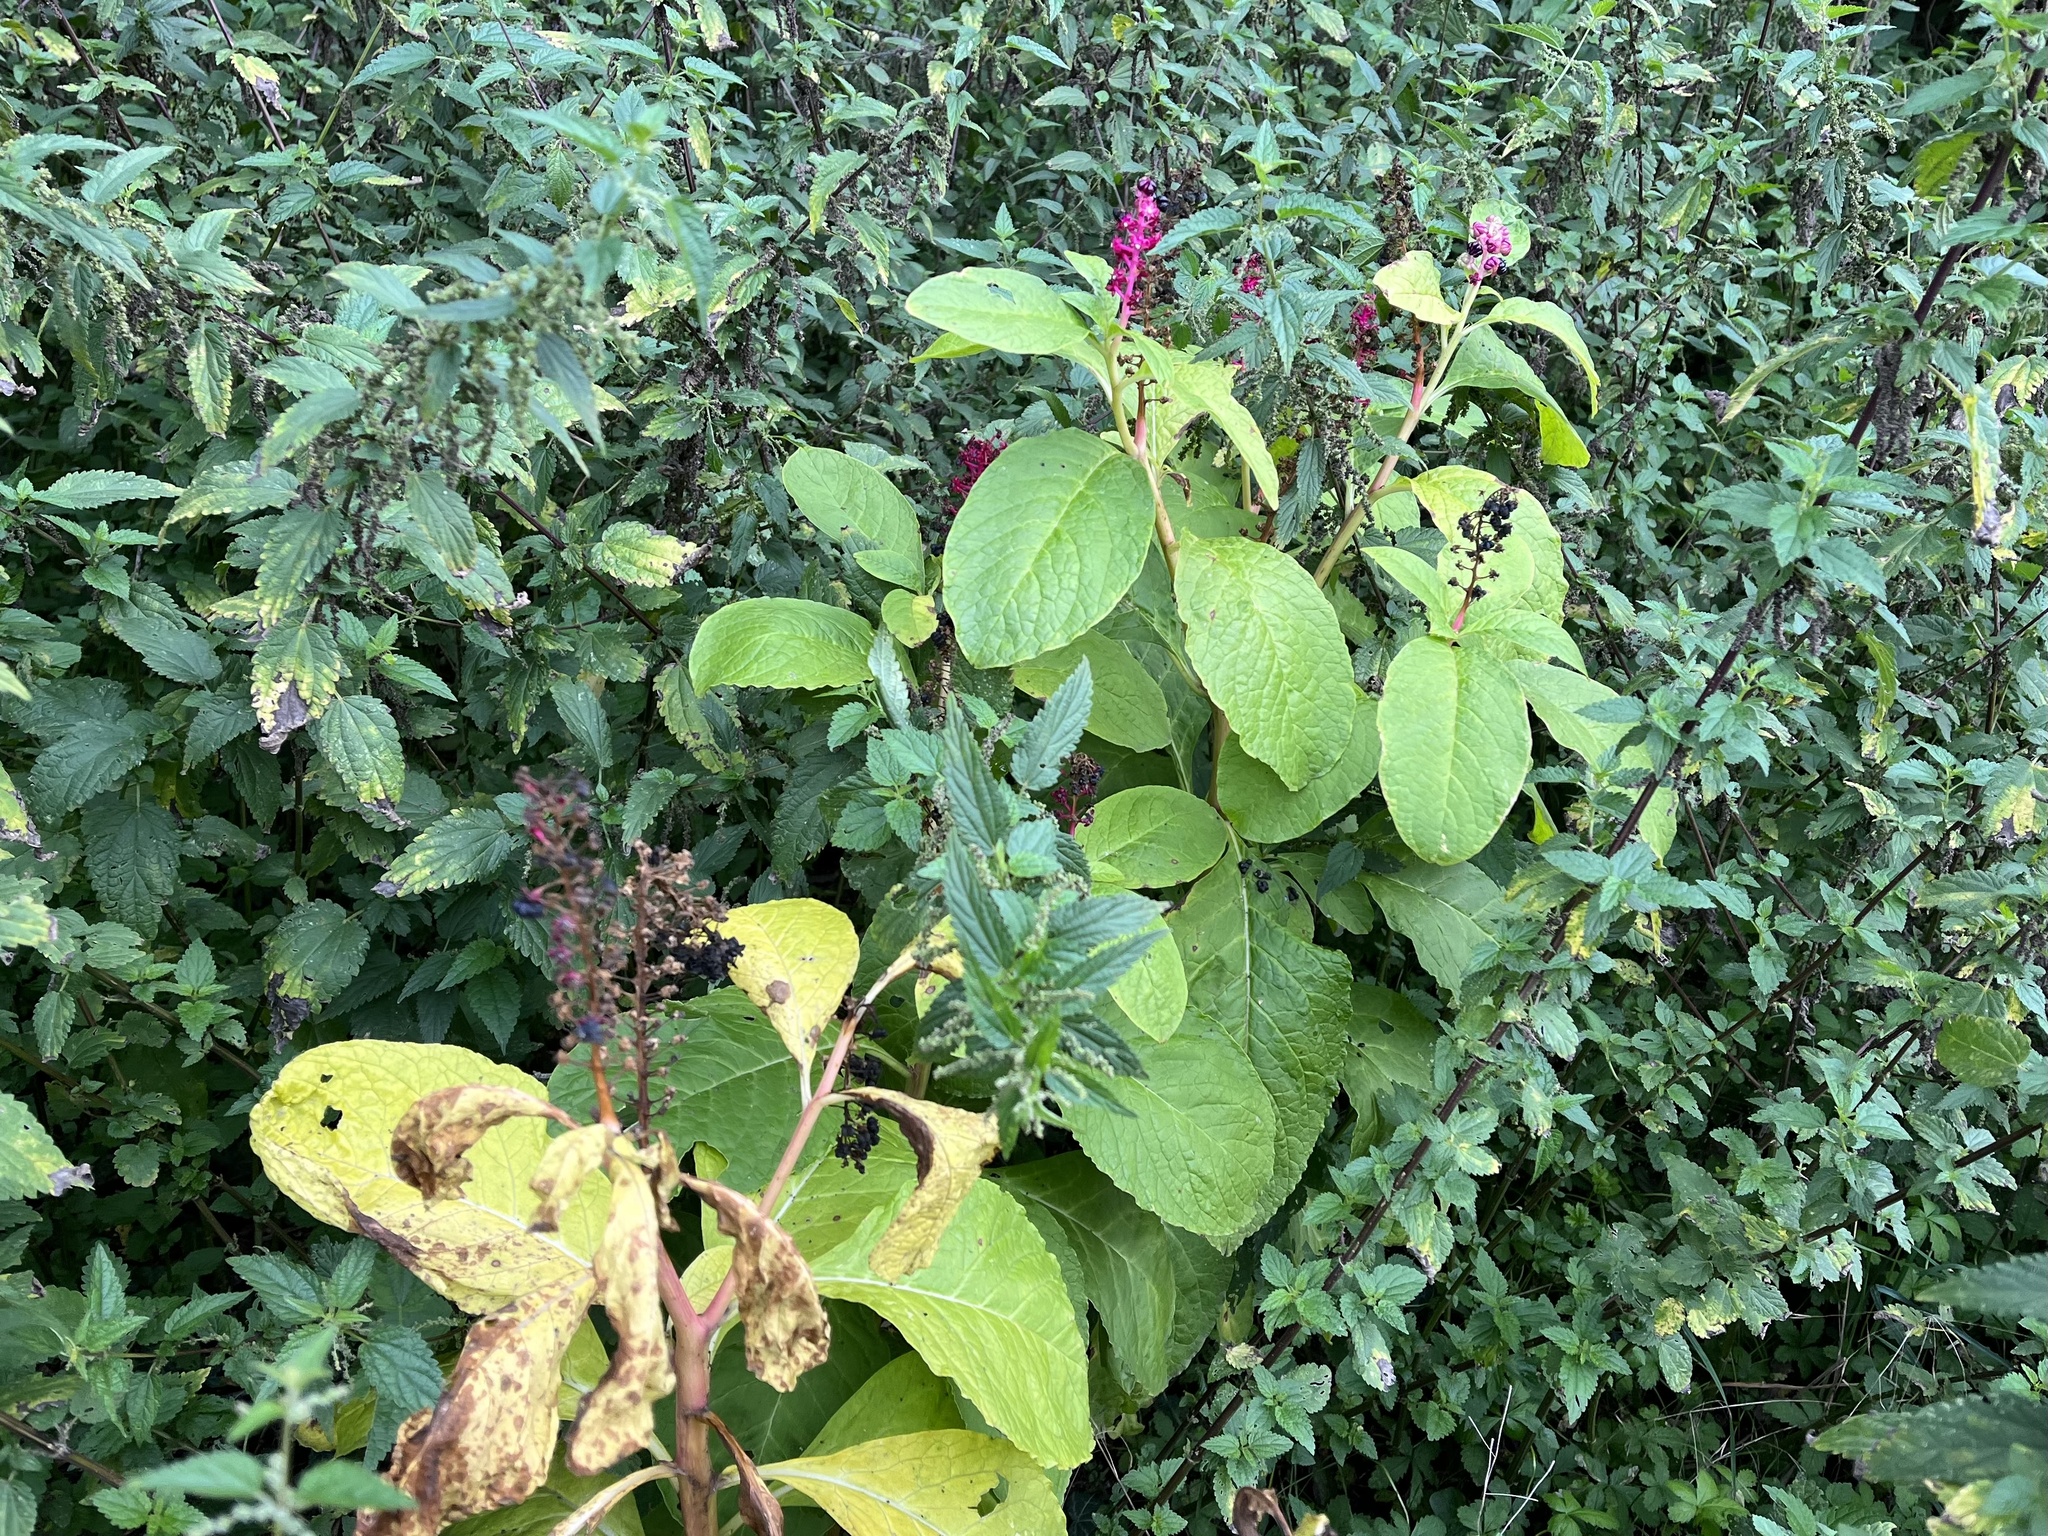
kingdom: Plantae
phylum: Tracheophyta
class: Magnoliopsida
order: Caryophyllales
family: Phytolaccaceae
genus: Phytolacca
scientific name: Phytolacca acinosa
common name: Indian pokeweed
